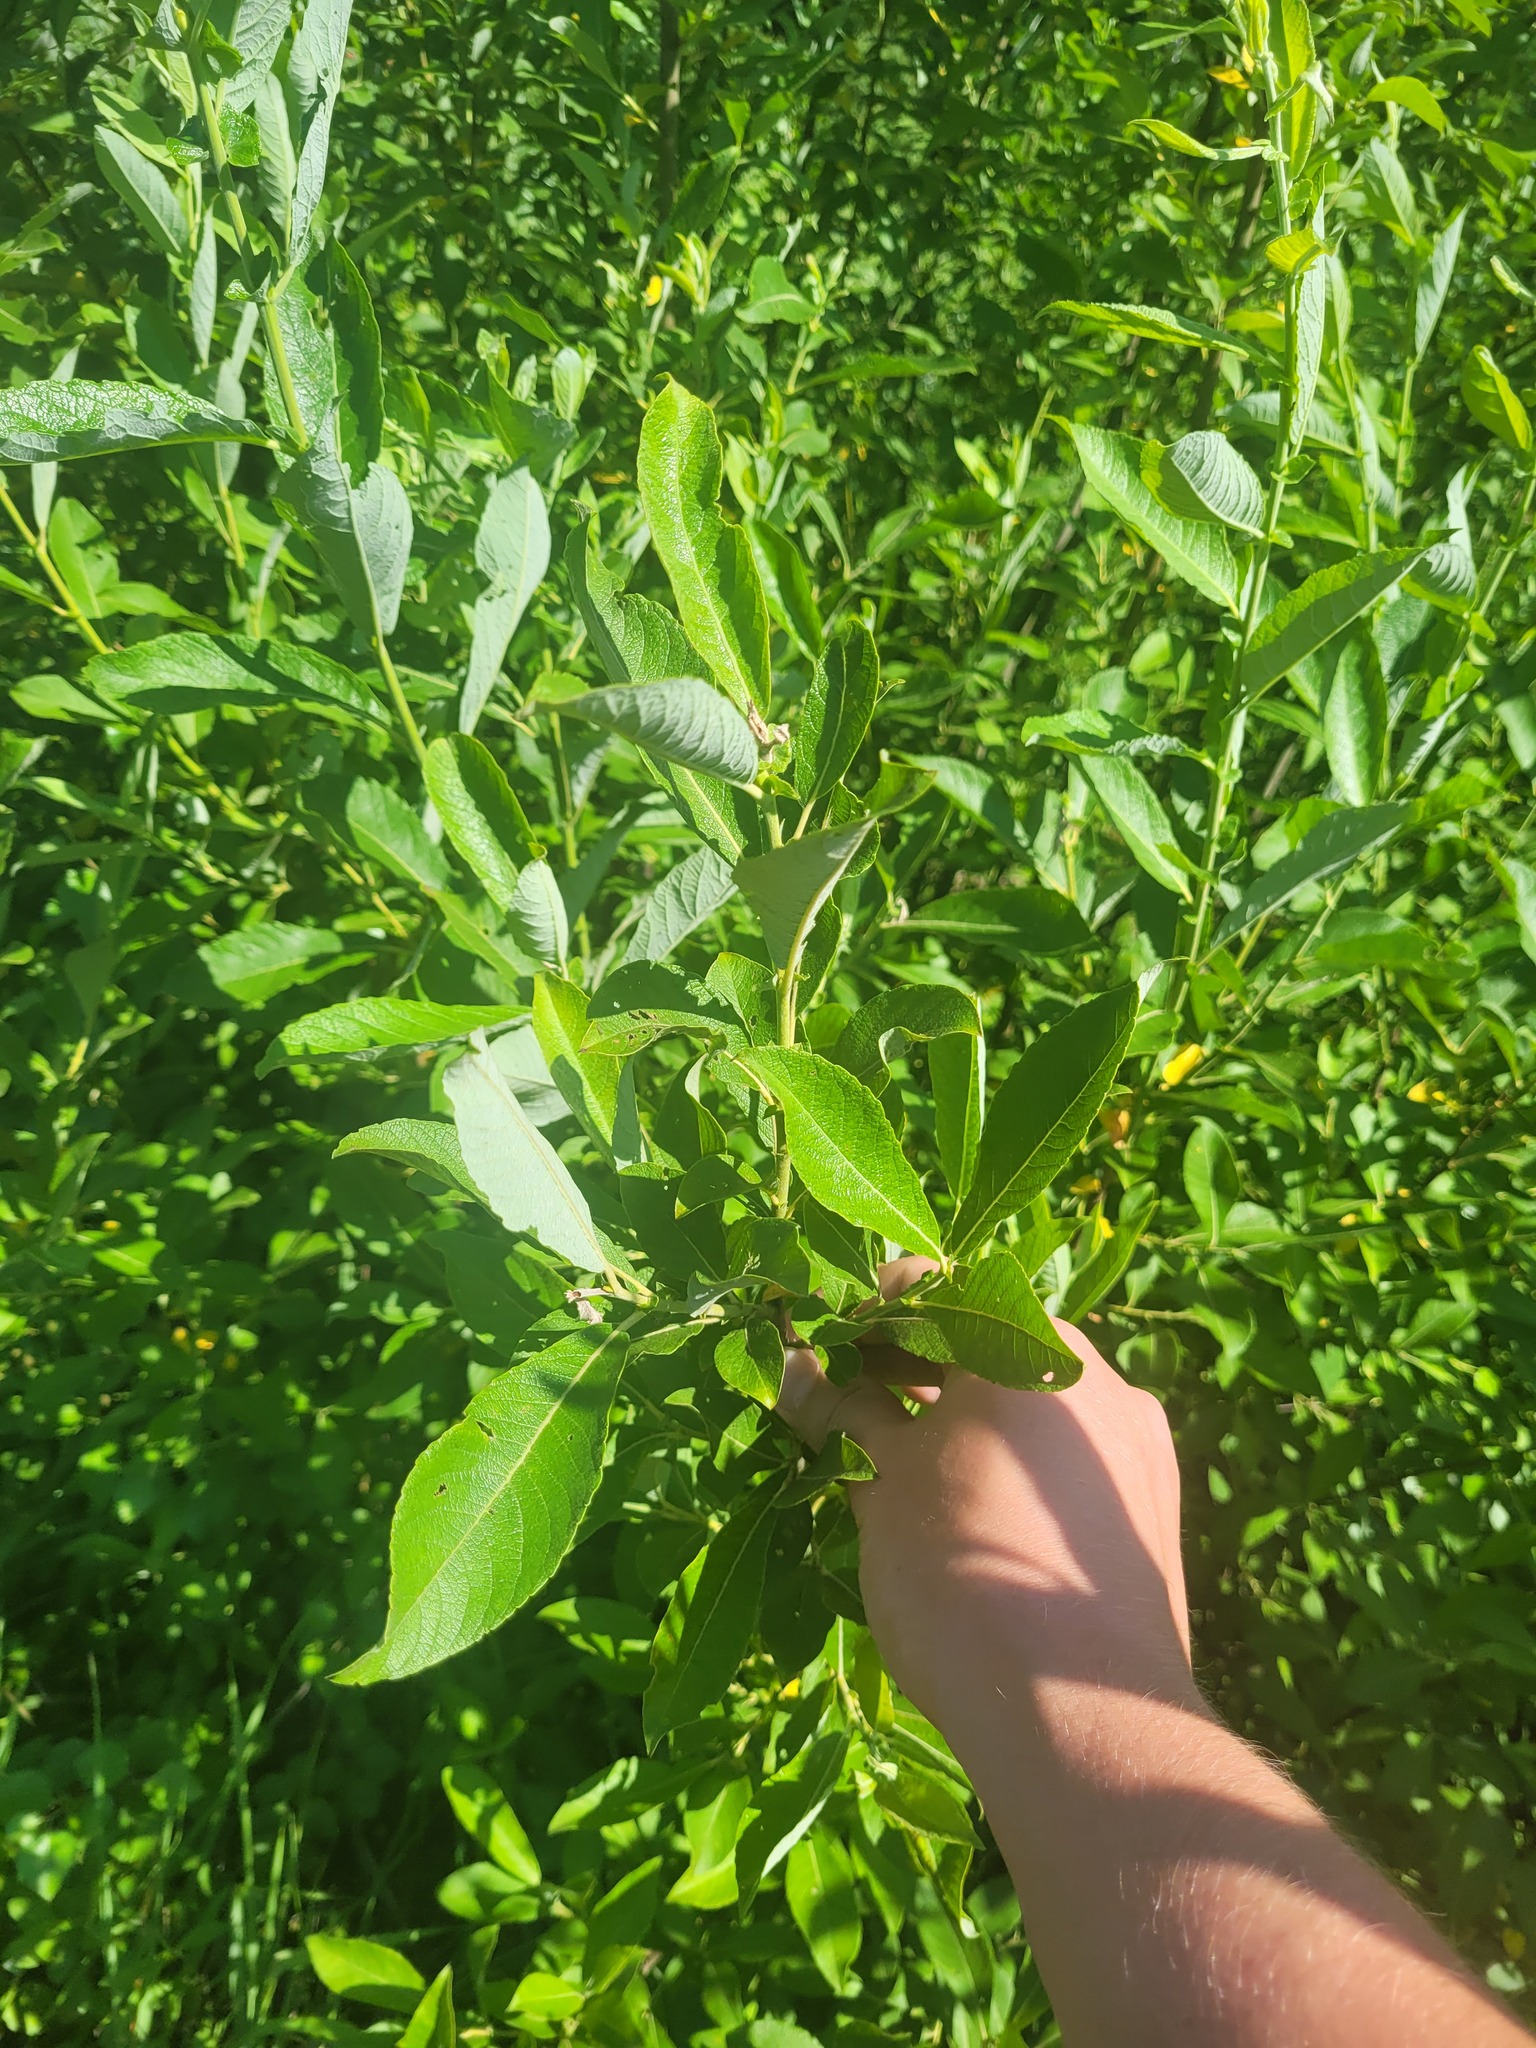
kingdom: Plantae
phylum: Tracheophyta
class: Magnoliopsida
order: Malpighiales
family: Salicaceae
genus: Salix
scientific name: Salix cinerea
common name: Common sallow
